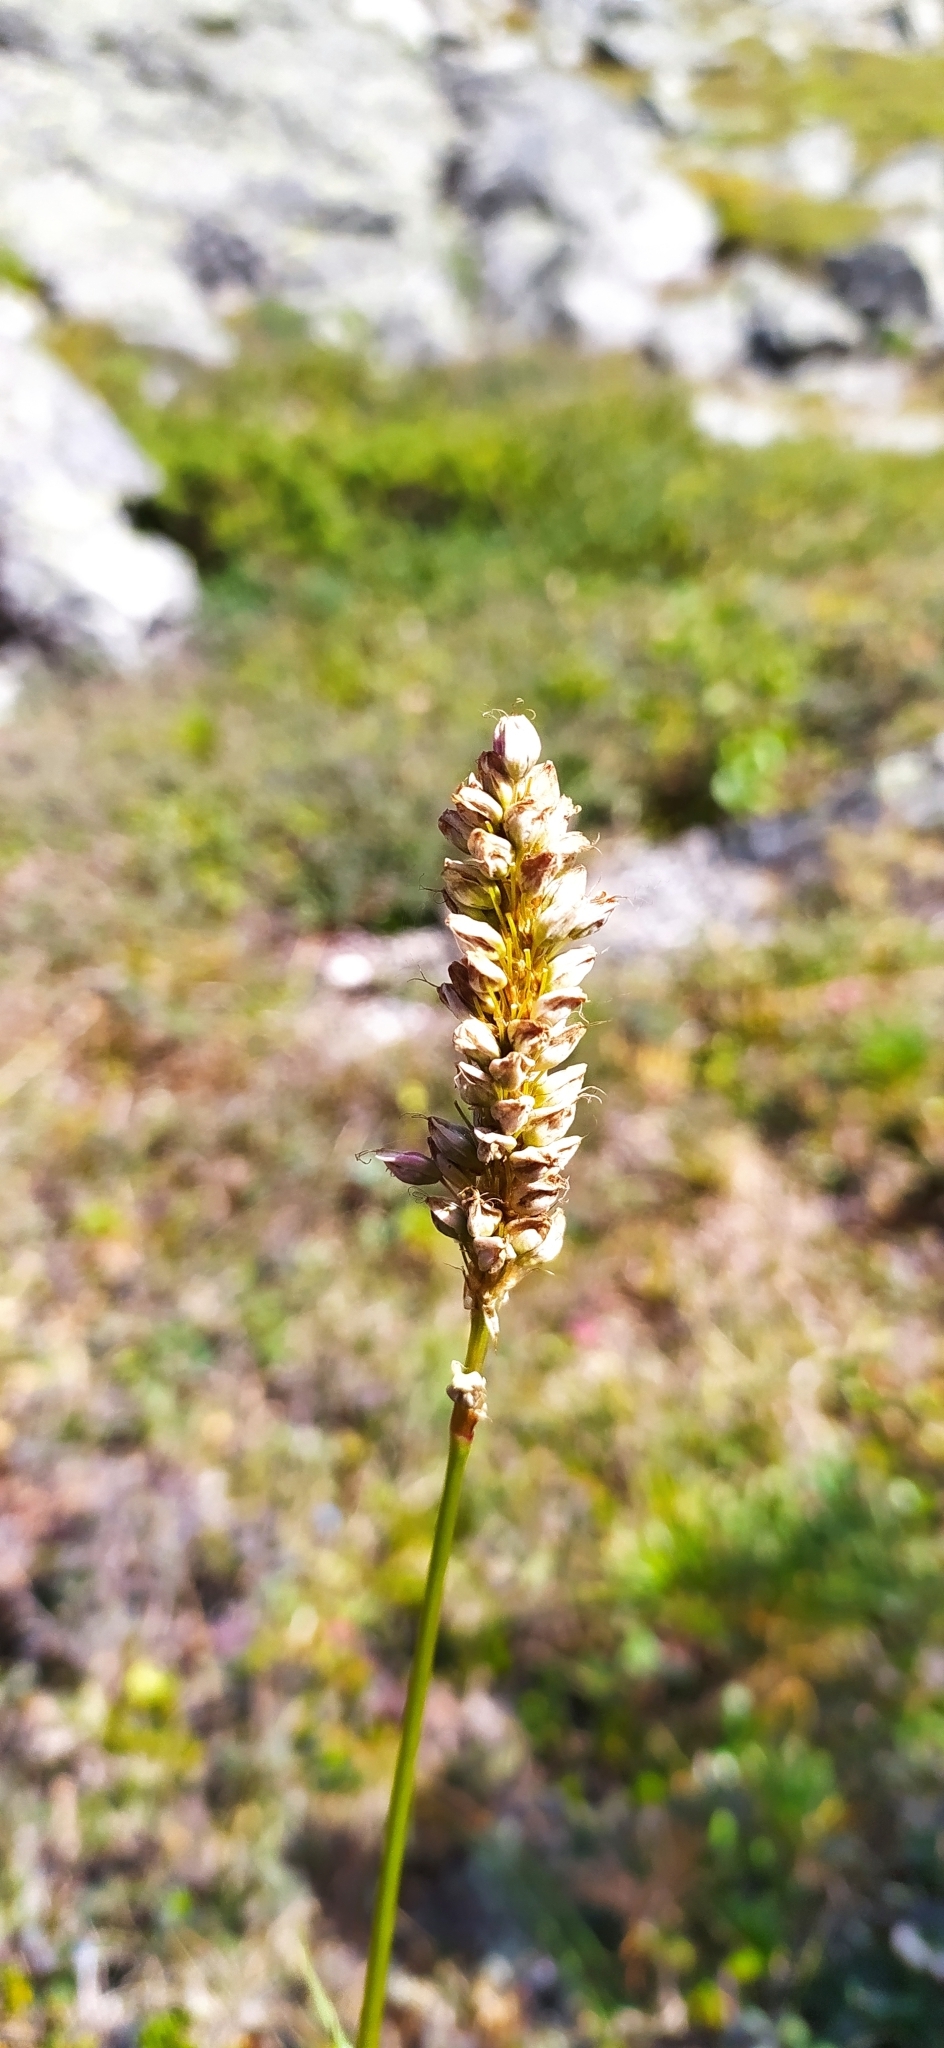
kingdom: Plantae
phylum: Tracheophyta
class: Magnoliopsida
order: Caryophyllales
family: Polygonaceae
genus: Bistorta
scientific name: Bistorta officinalis
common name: Common bistort
